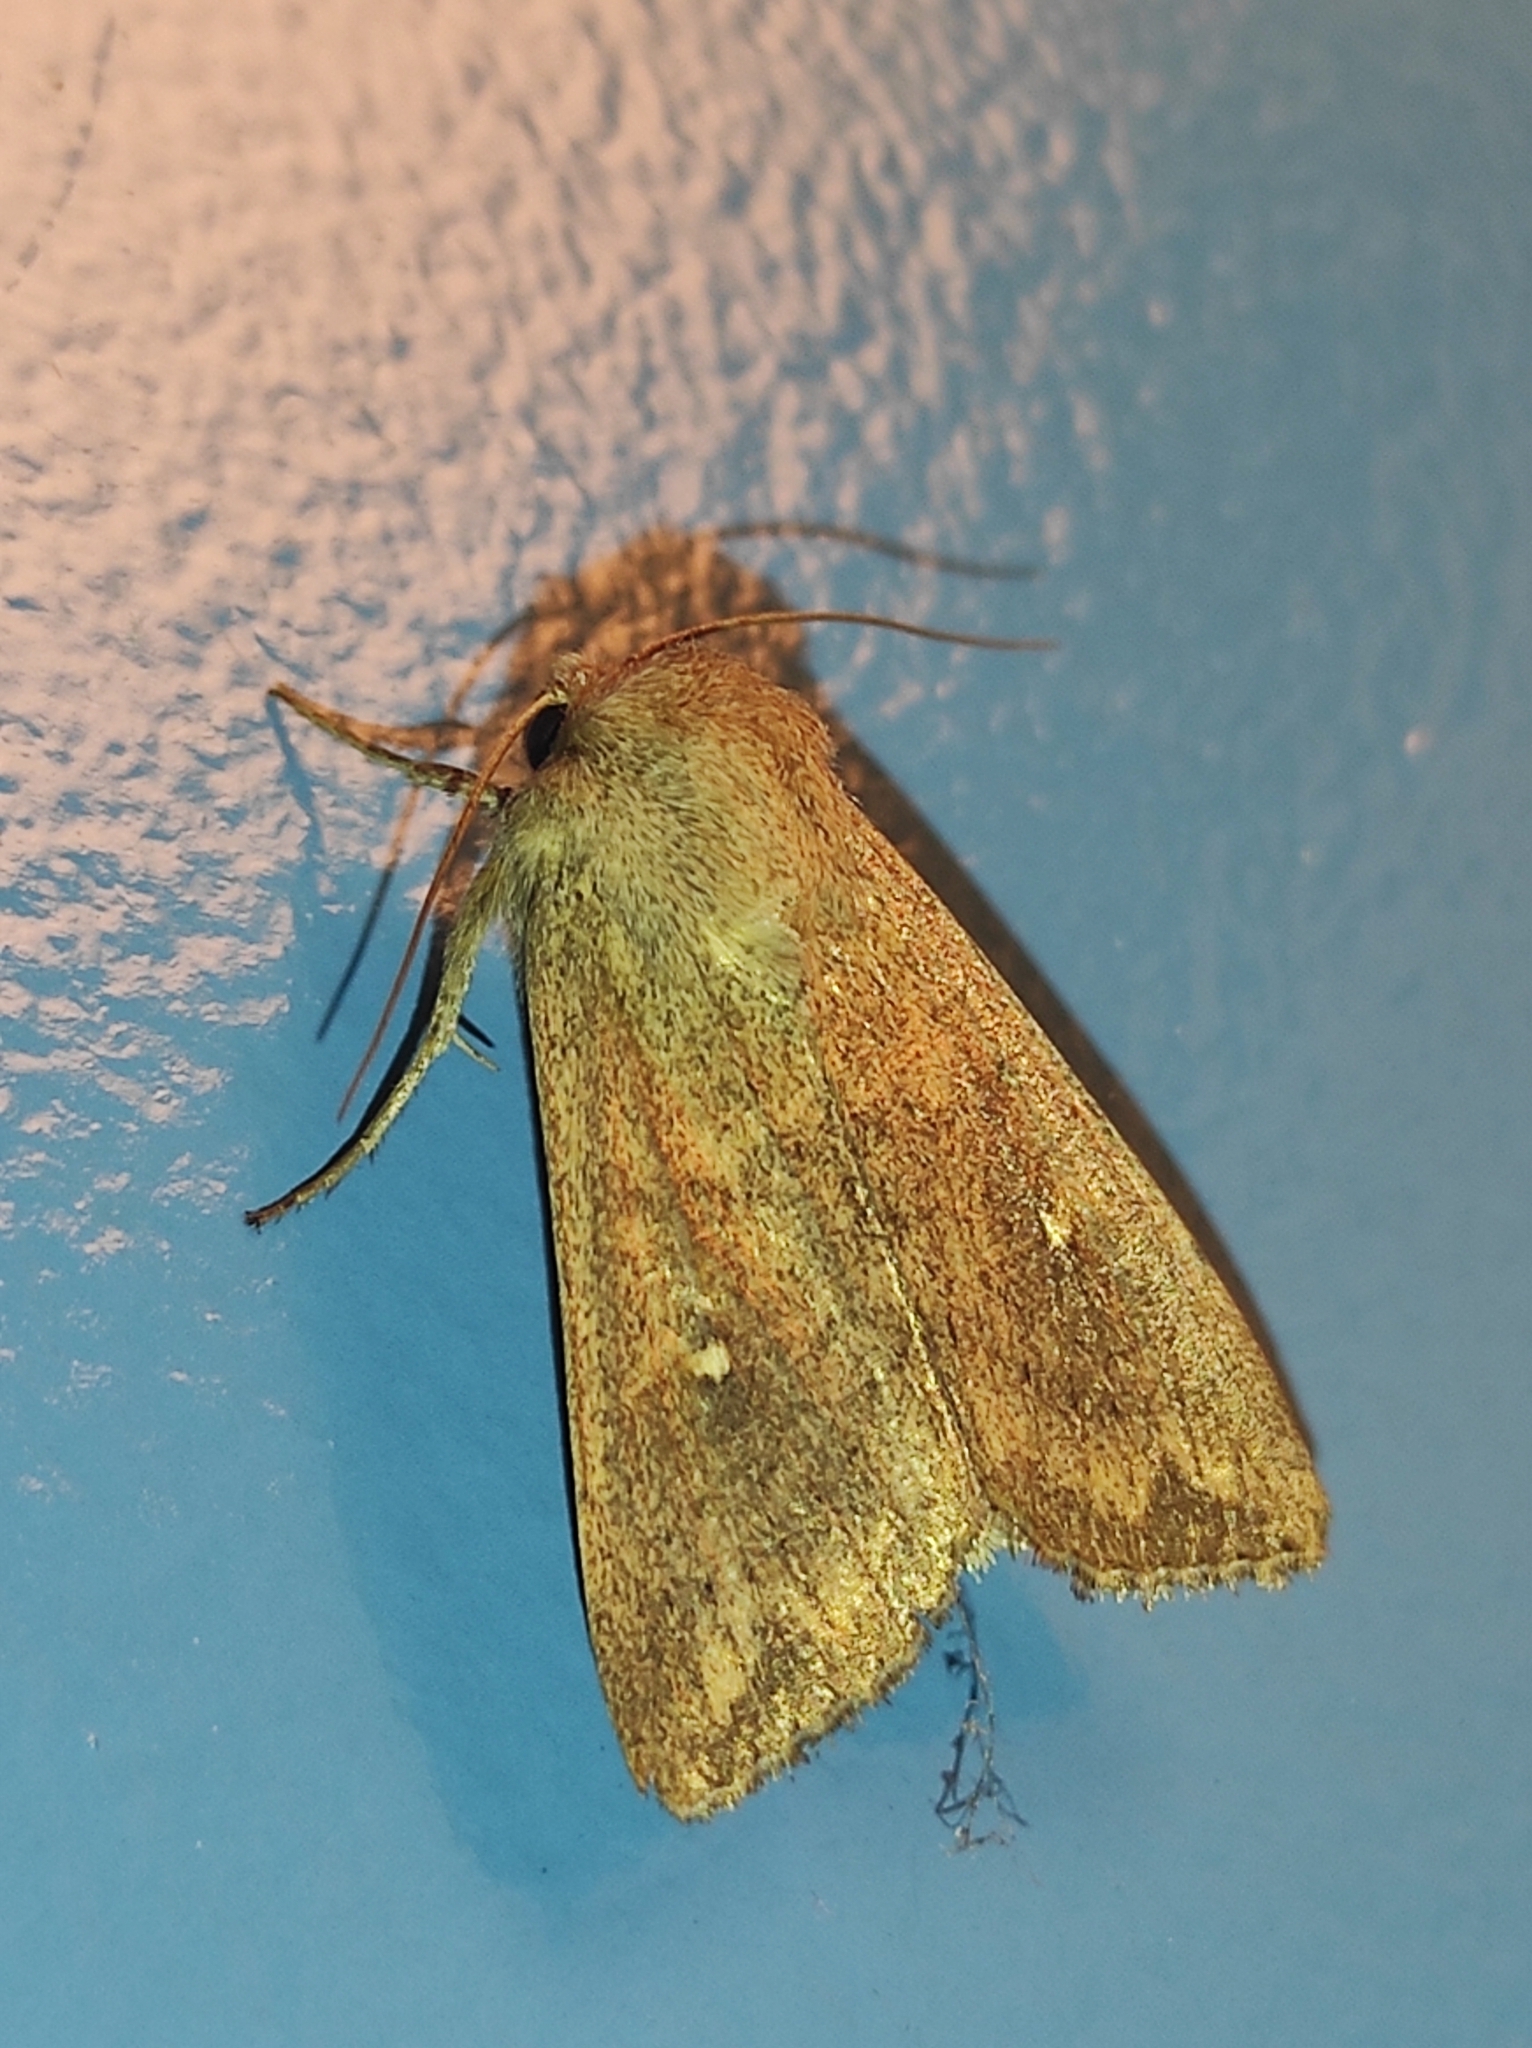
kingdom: Animalia
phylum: Arthropoda
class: Insecta
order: Lepidoptera
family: Noctuidae
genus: Mythimna
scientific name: Mythimna albipuncta
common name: White-point
